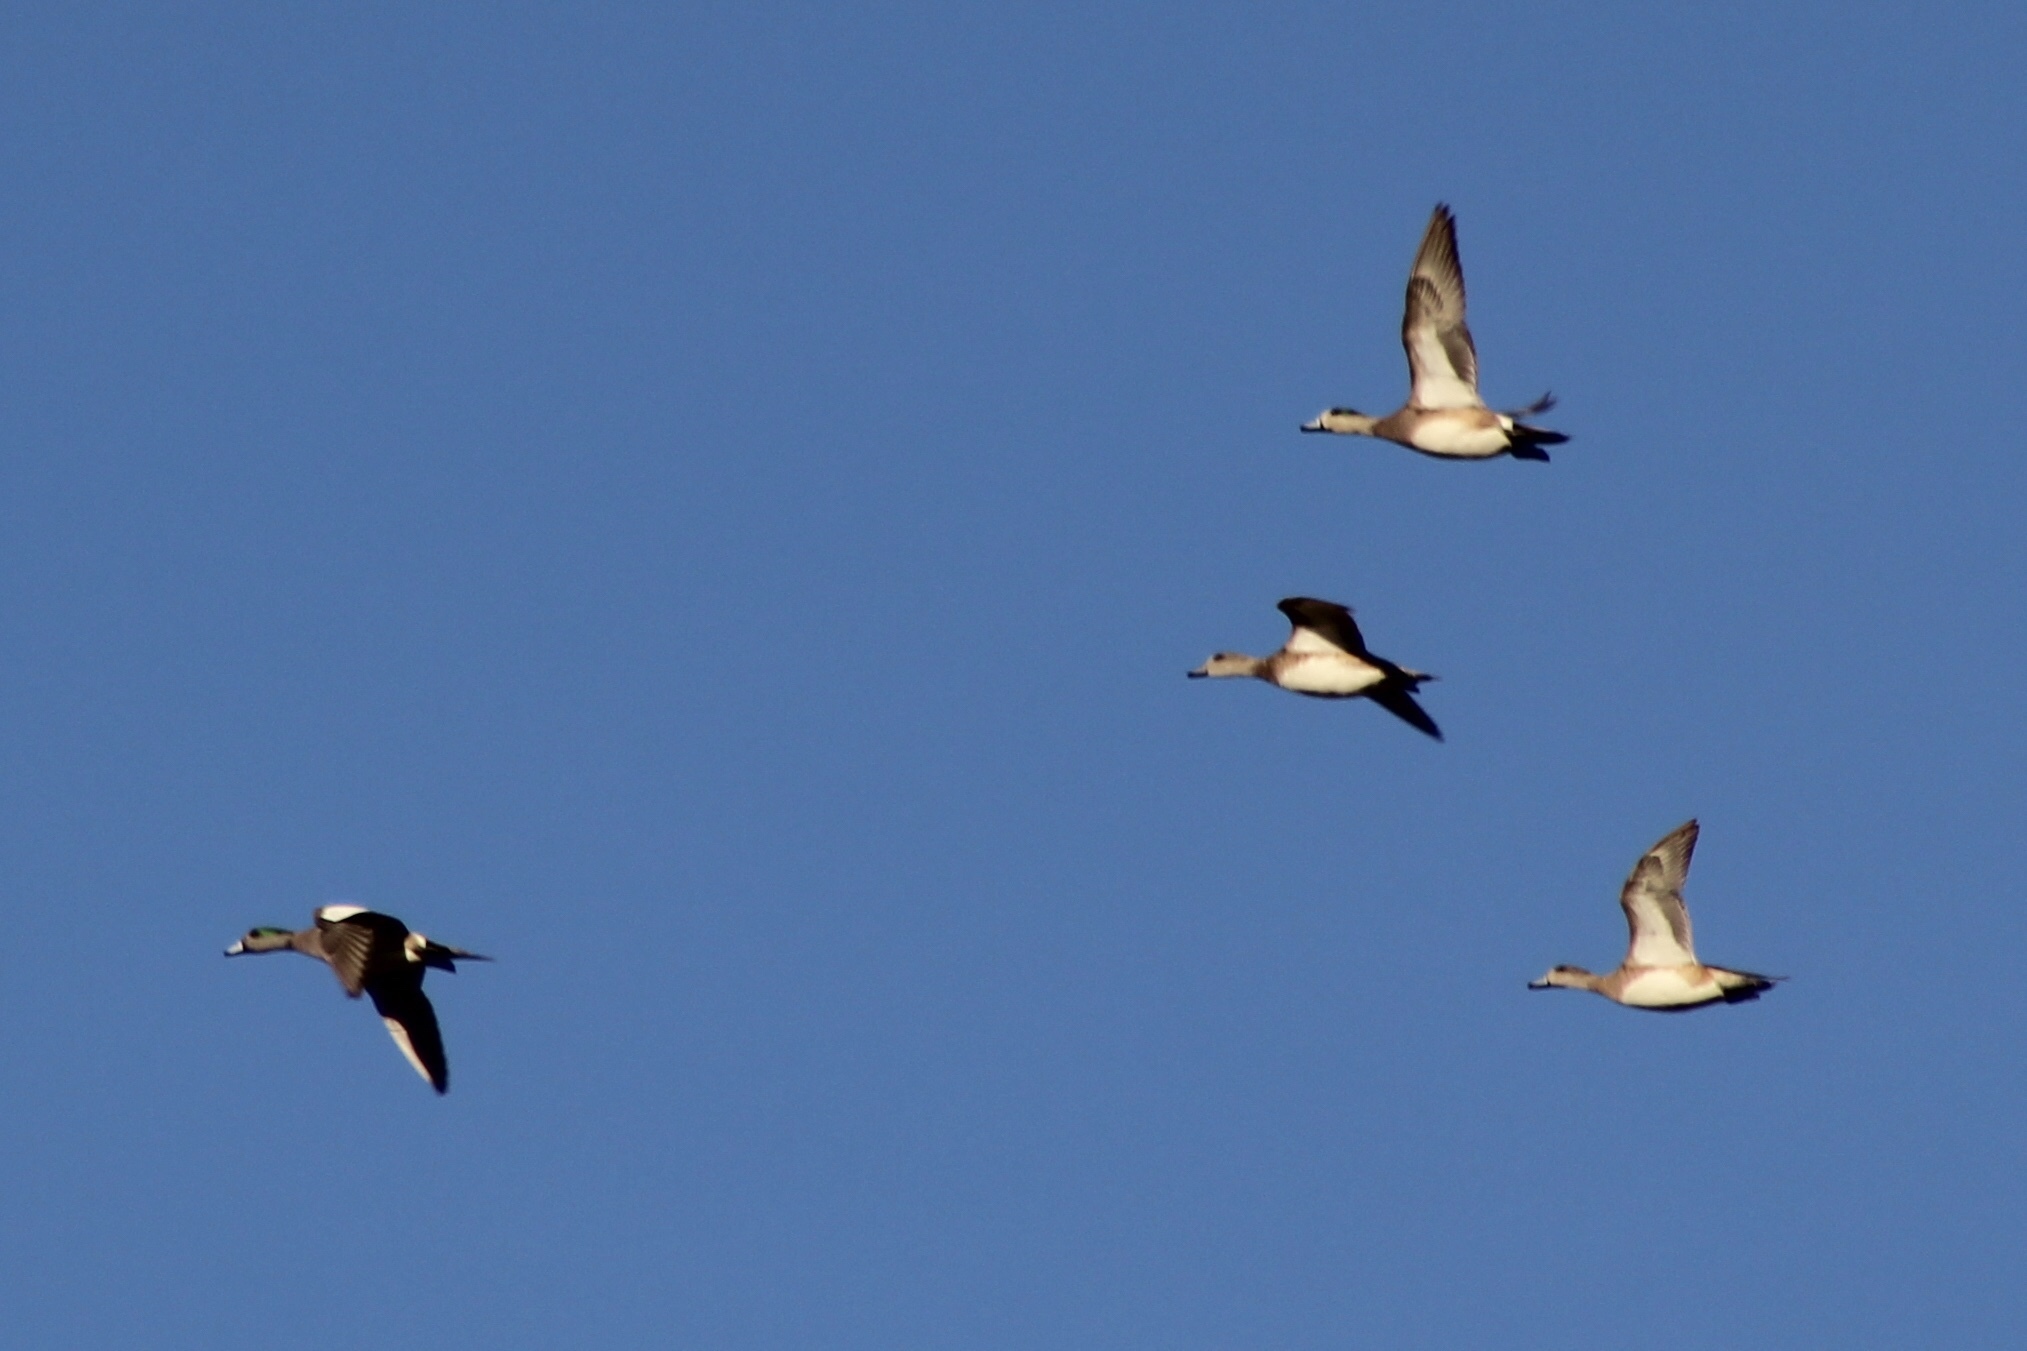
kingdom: Animalia
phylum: Chordata
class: Aves
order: Anseriformes
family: Anatidae
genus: Mareca
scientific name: Mareca americana
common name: American wigeon
